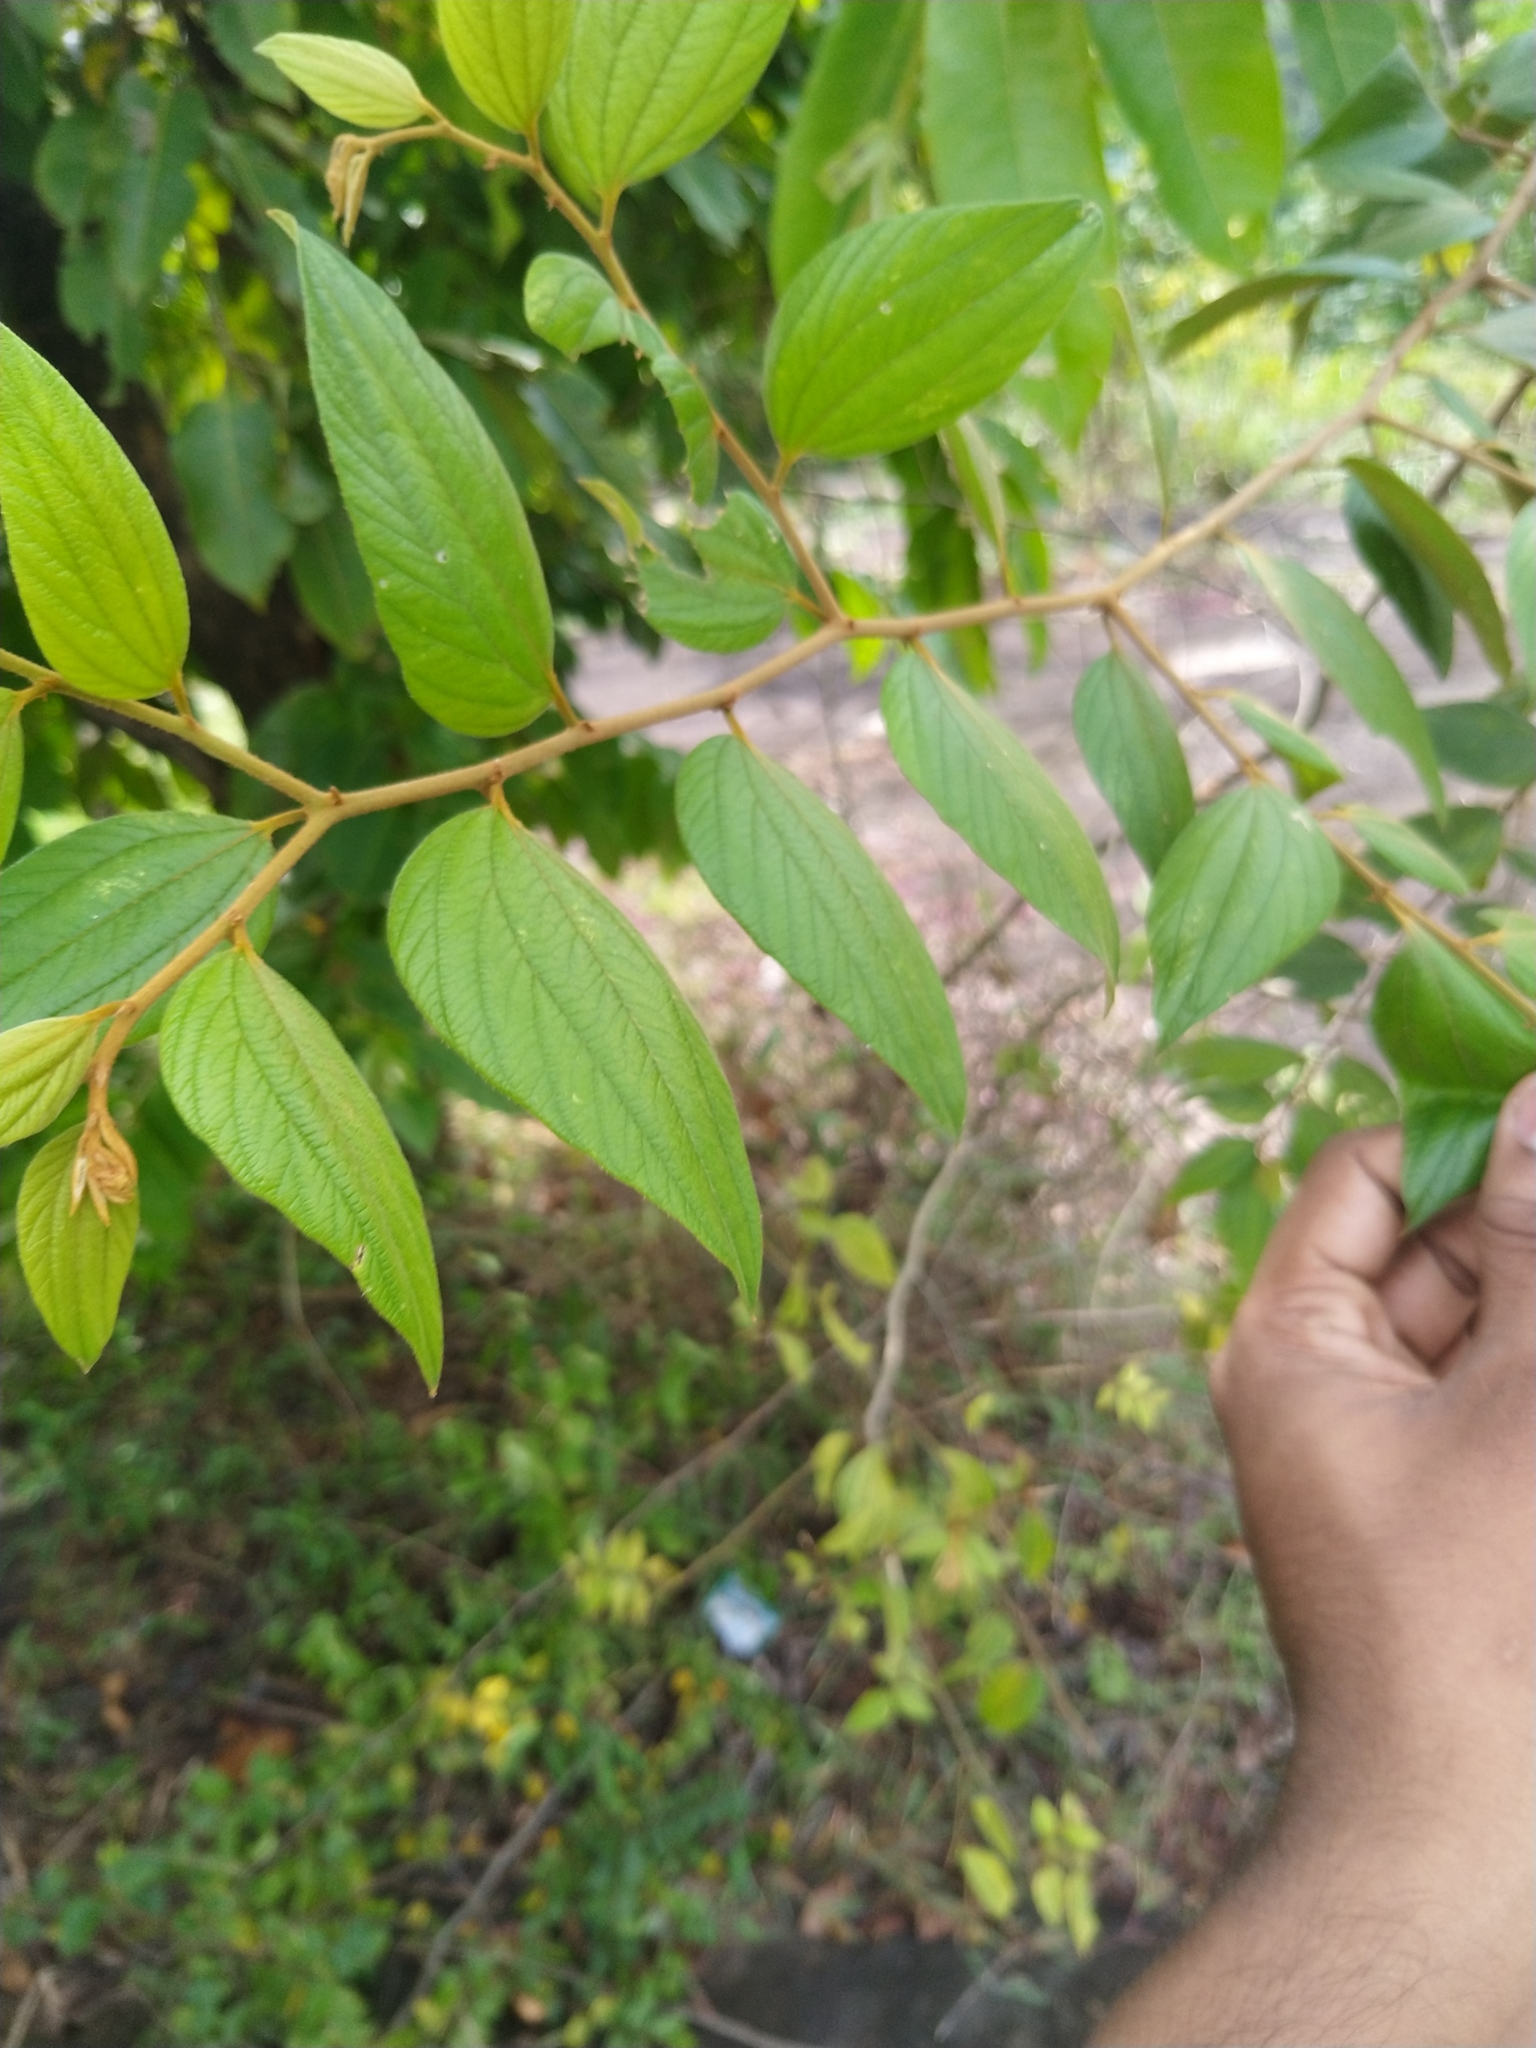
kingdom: Plantae
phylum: Tracheophyta
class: Magnoliopsida
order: Rosales
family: Rhamnaceae
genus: Ziziphus
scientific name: Ziziphus oenopolia
